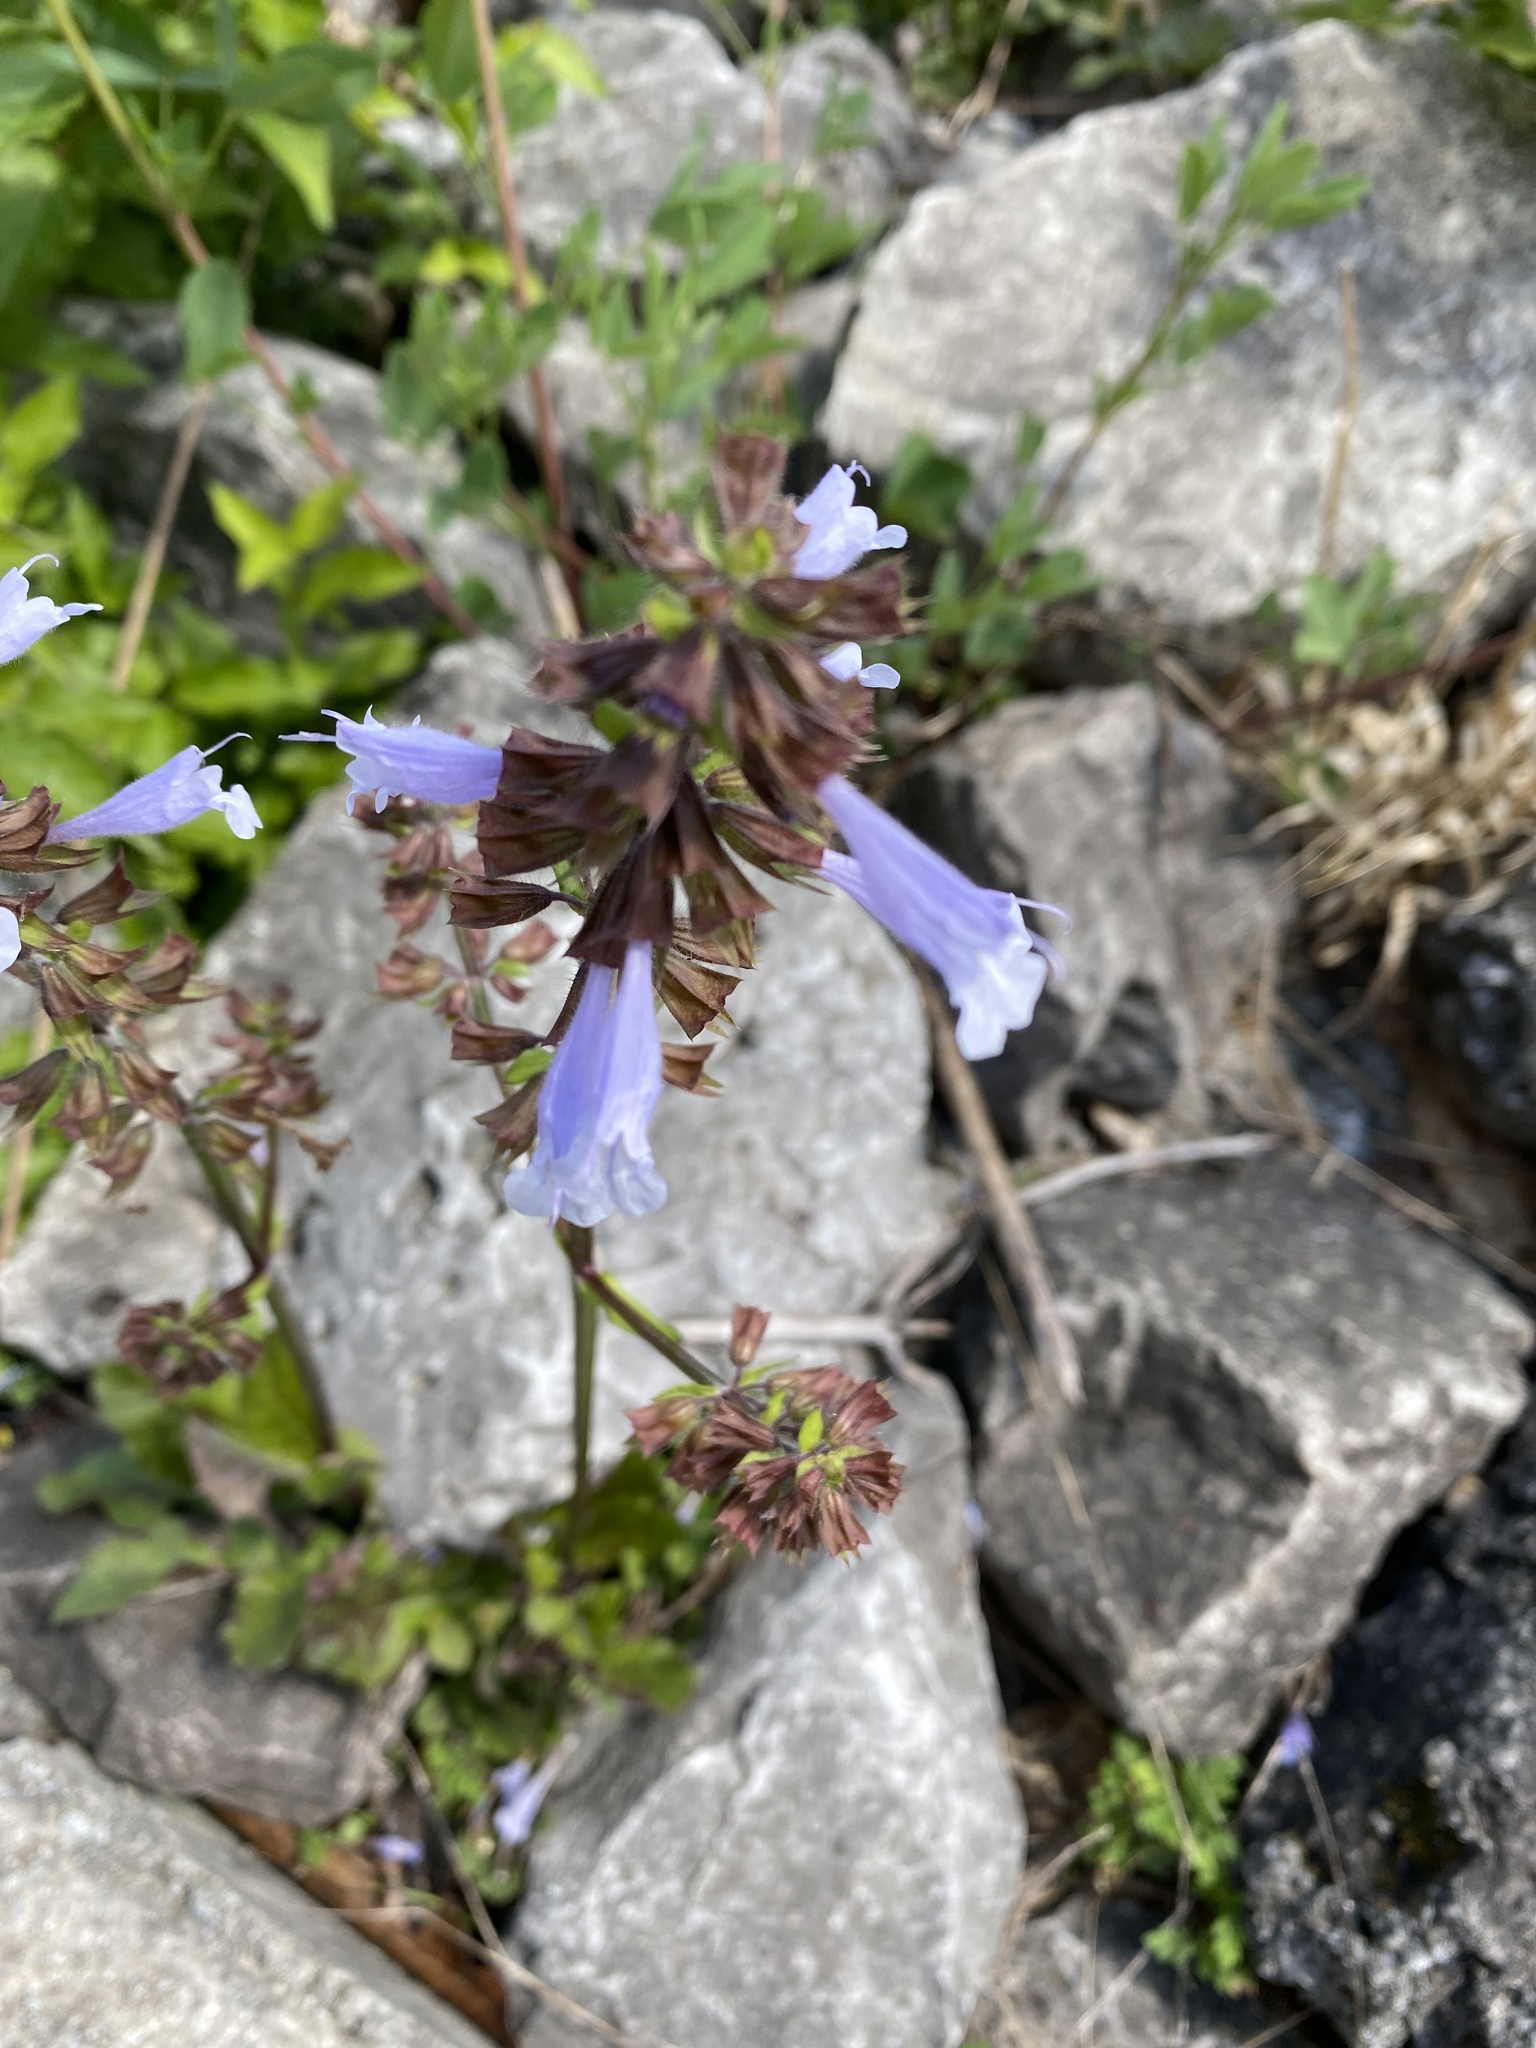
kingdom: Plantae
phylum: Tracheophyta
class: Magnoliopsida
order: Lamiales
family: Lamiaceae
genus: Salvia
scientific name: Salvia lyrata
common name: Cancerweed
